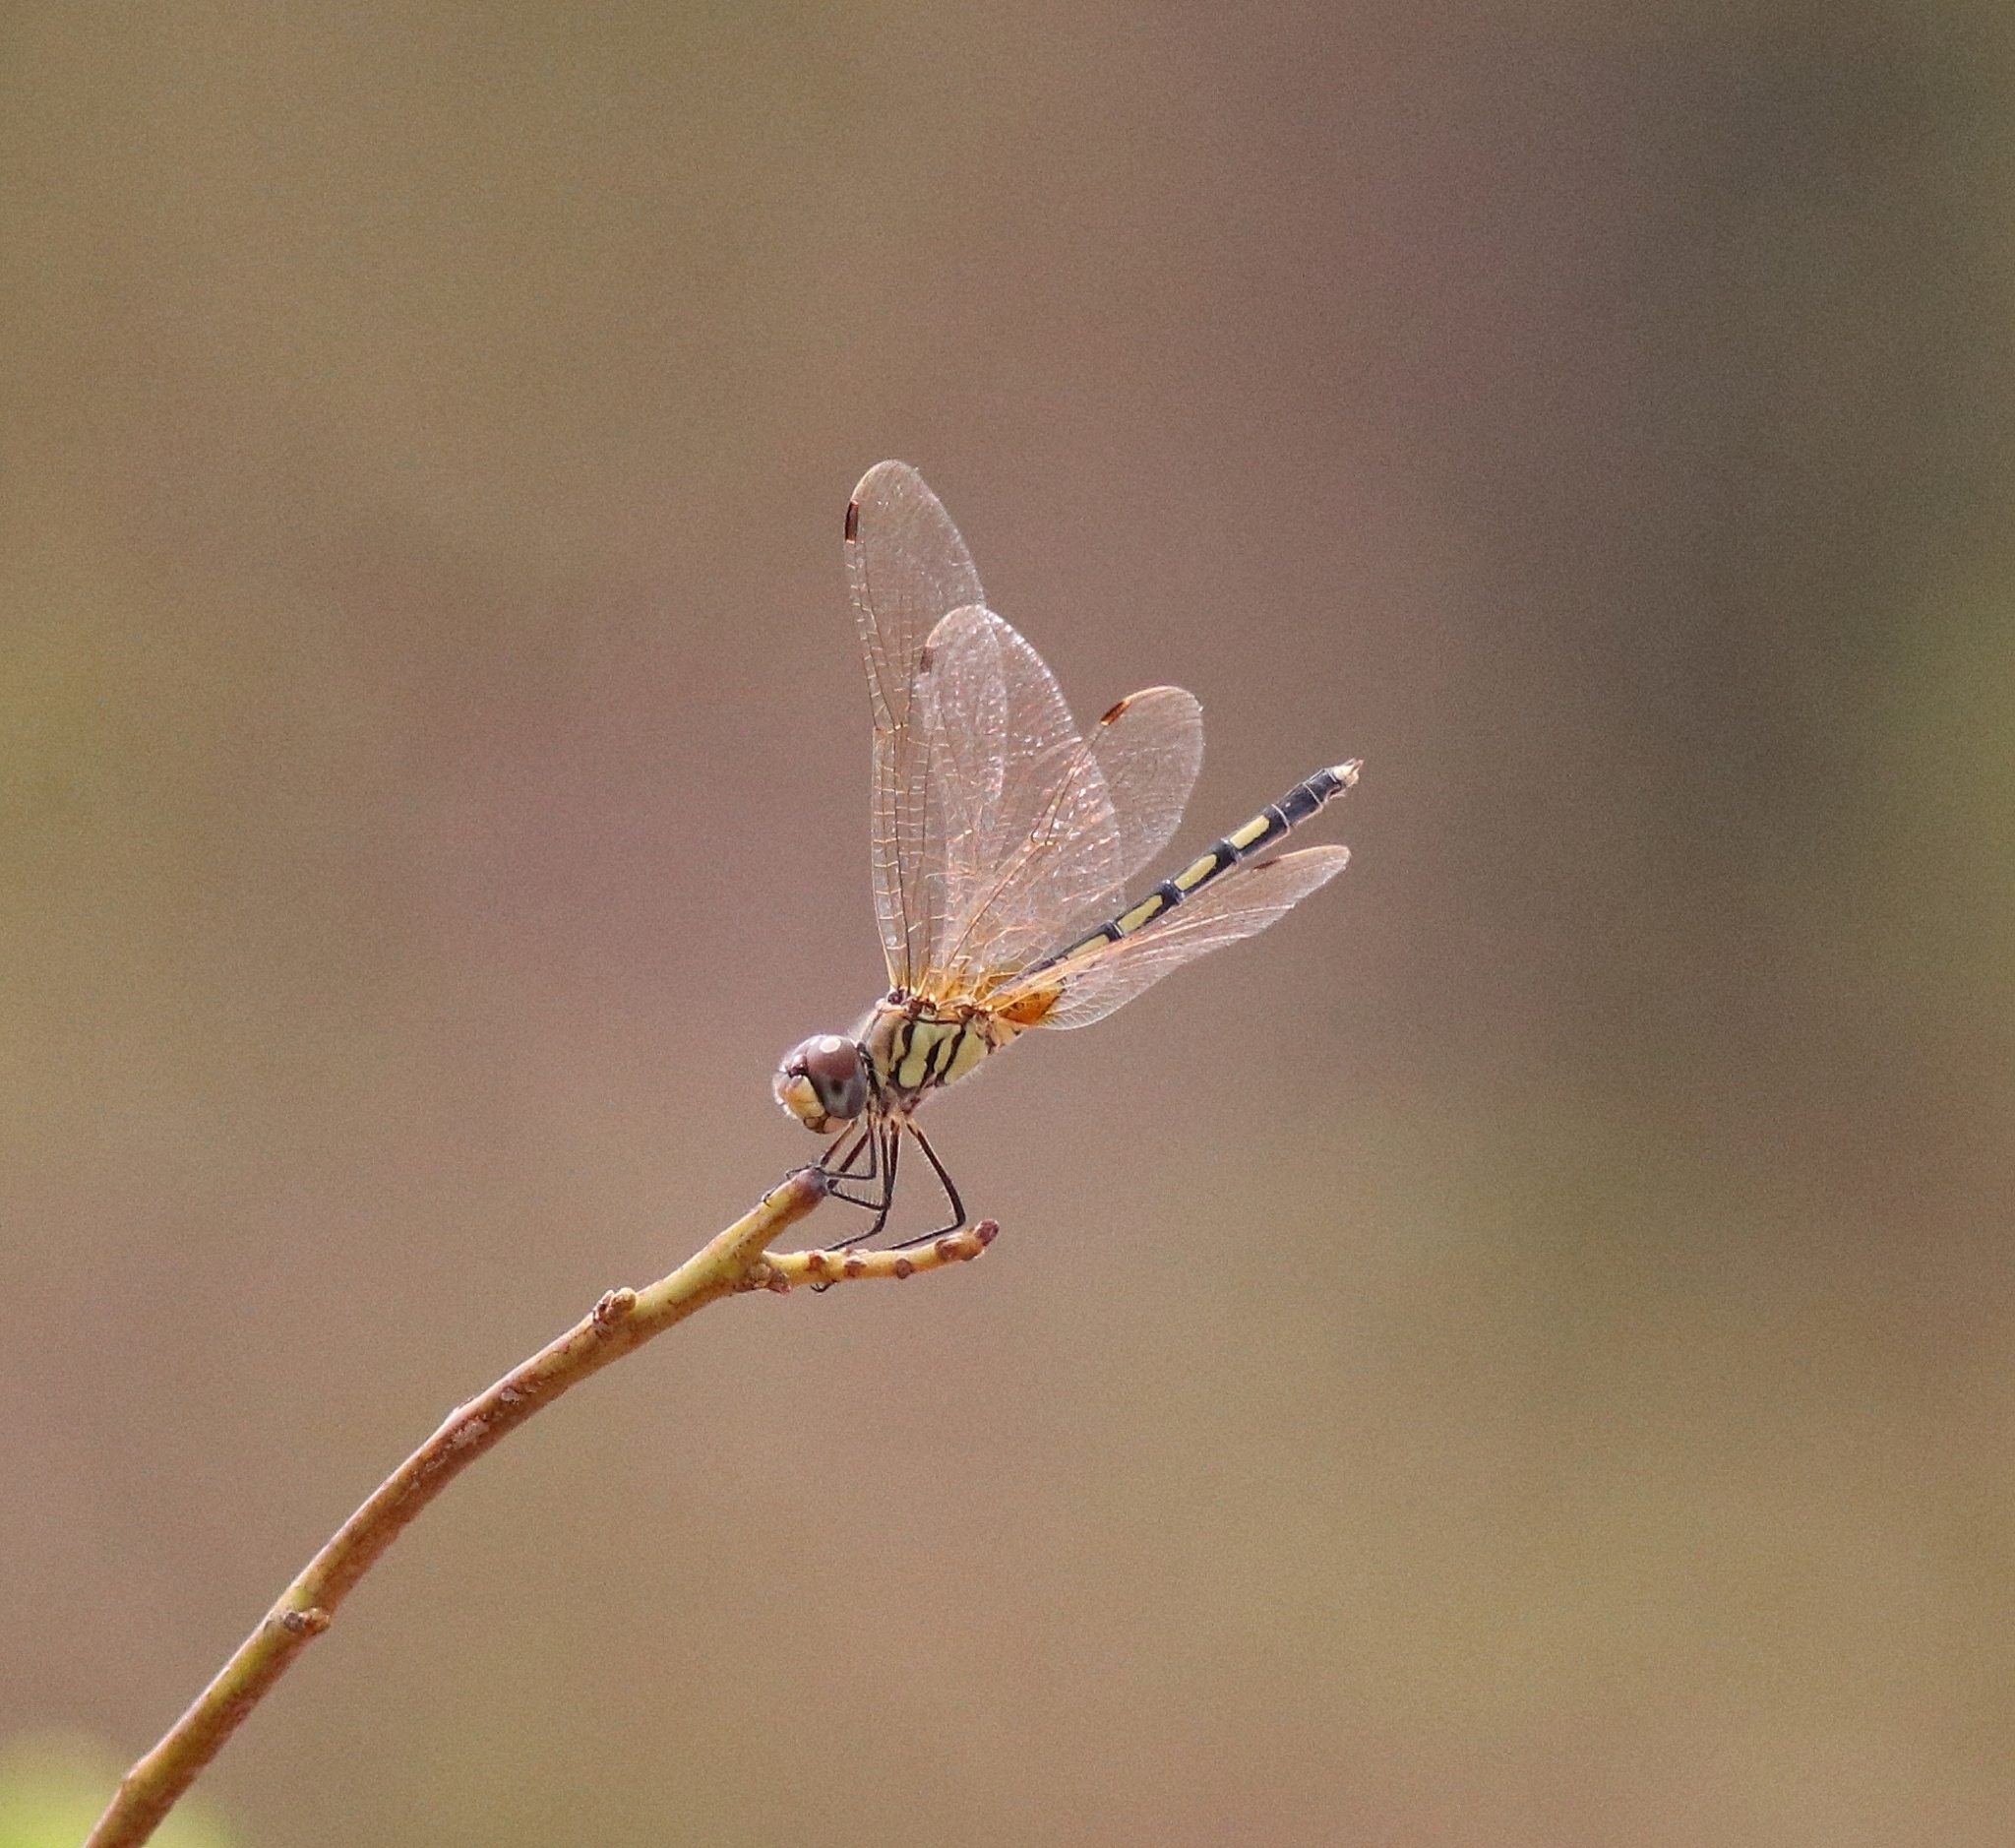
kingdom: Animalia
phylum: Arthropoda
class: Insecta
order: Odonata
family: Libellulidae
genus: Trithemis
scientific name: Trithemis pallidinervis
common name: Dancing dropwing
